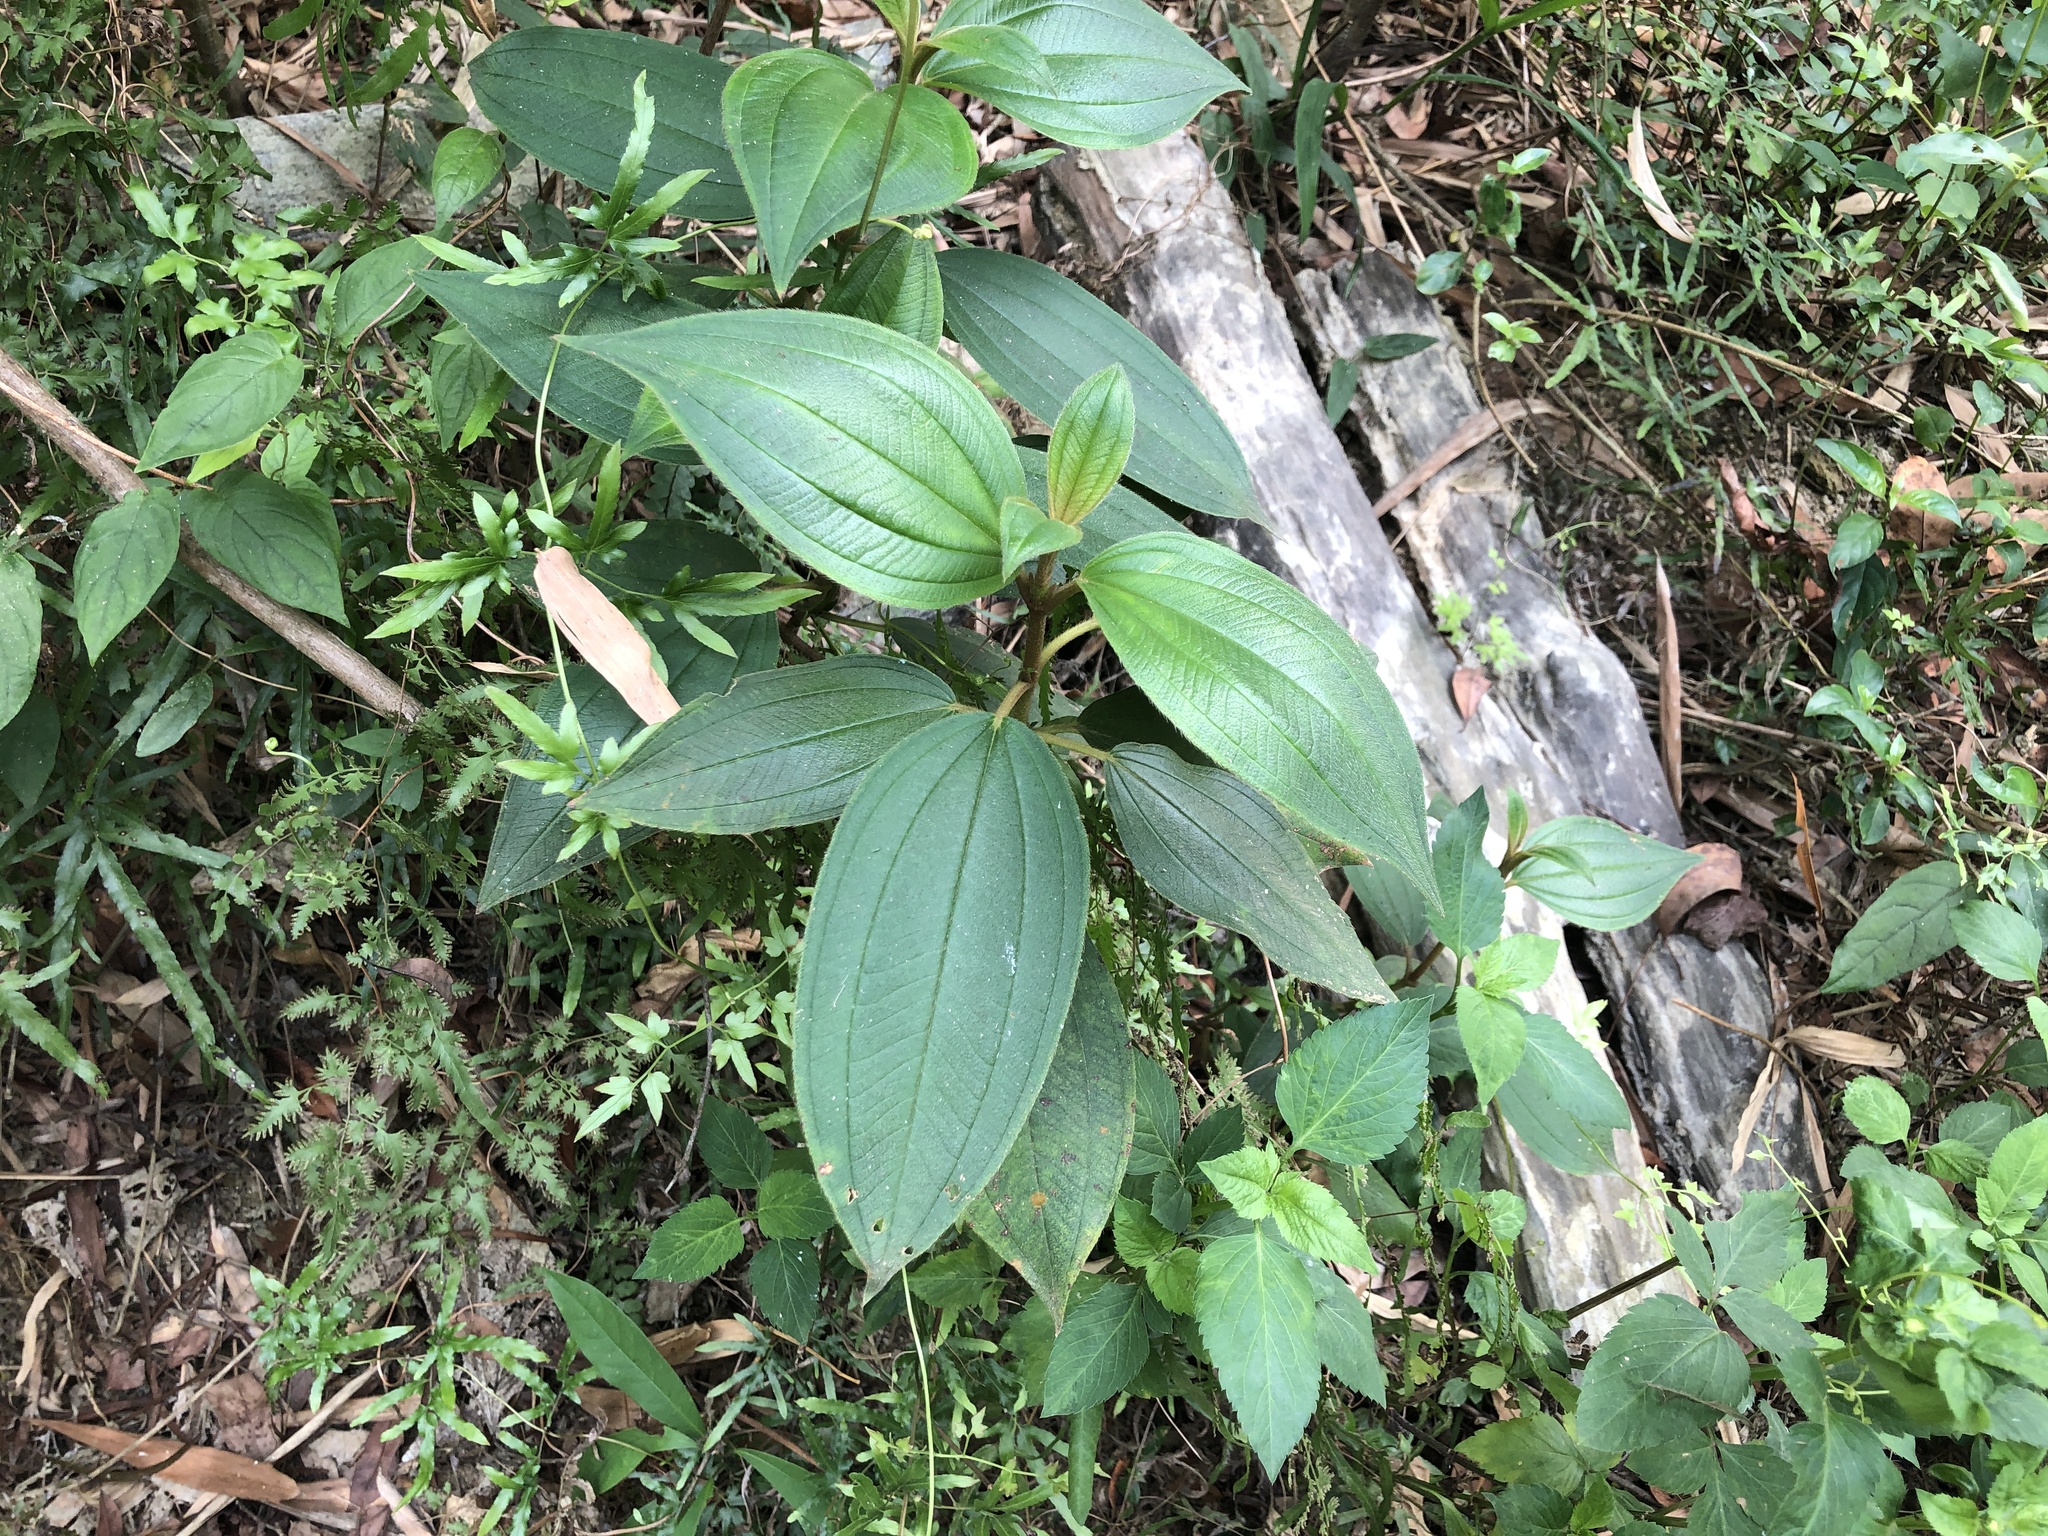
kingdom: Plantae
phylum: Tracheophyta
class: Magnoliopsida
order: Myrtales
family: Melastomataceae
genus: Melastoma
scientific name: Melastoma malabathricum
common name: Indian-rhododendron
